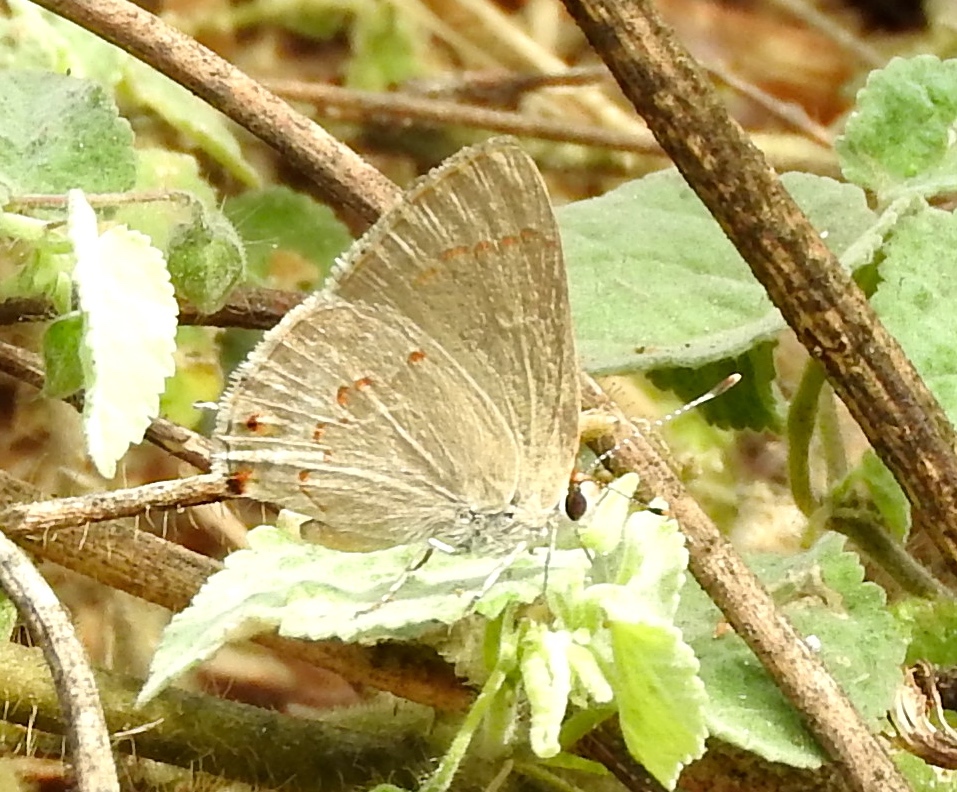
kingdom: Animalia
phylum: Arthropoda
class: Insecta
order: Lepidoptera
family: Lycaenidae
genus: Thecla
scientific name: Thecla rufofusca
